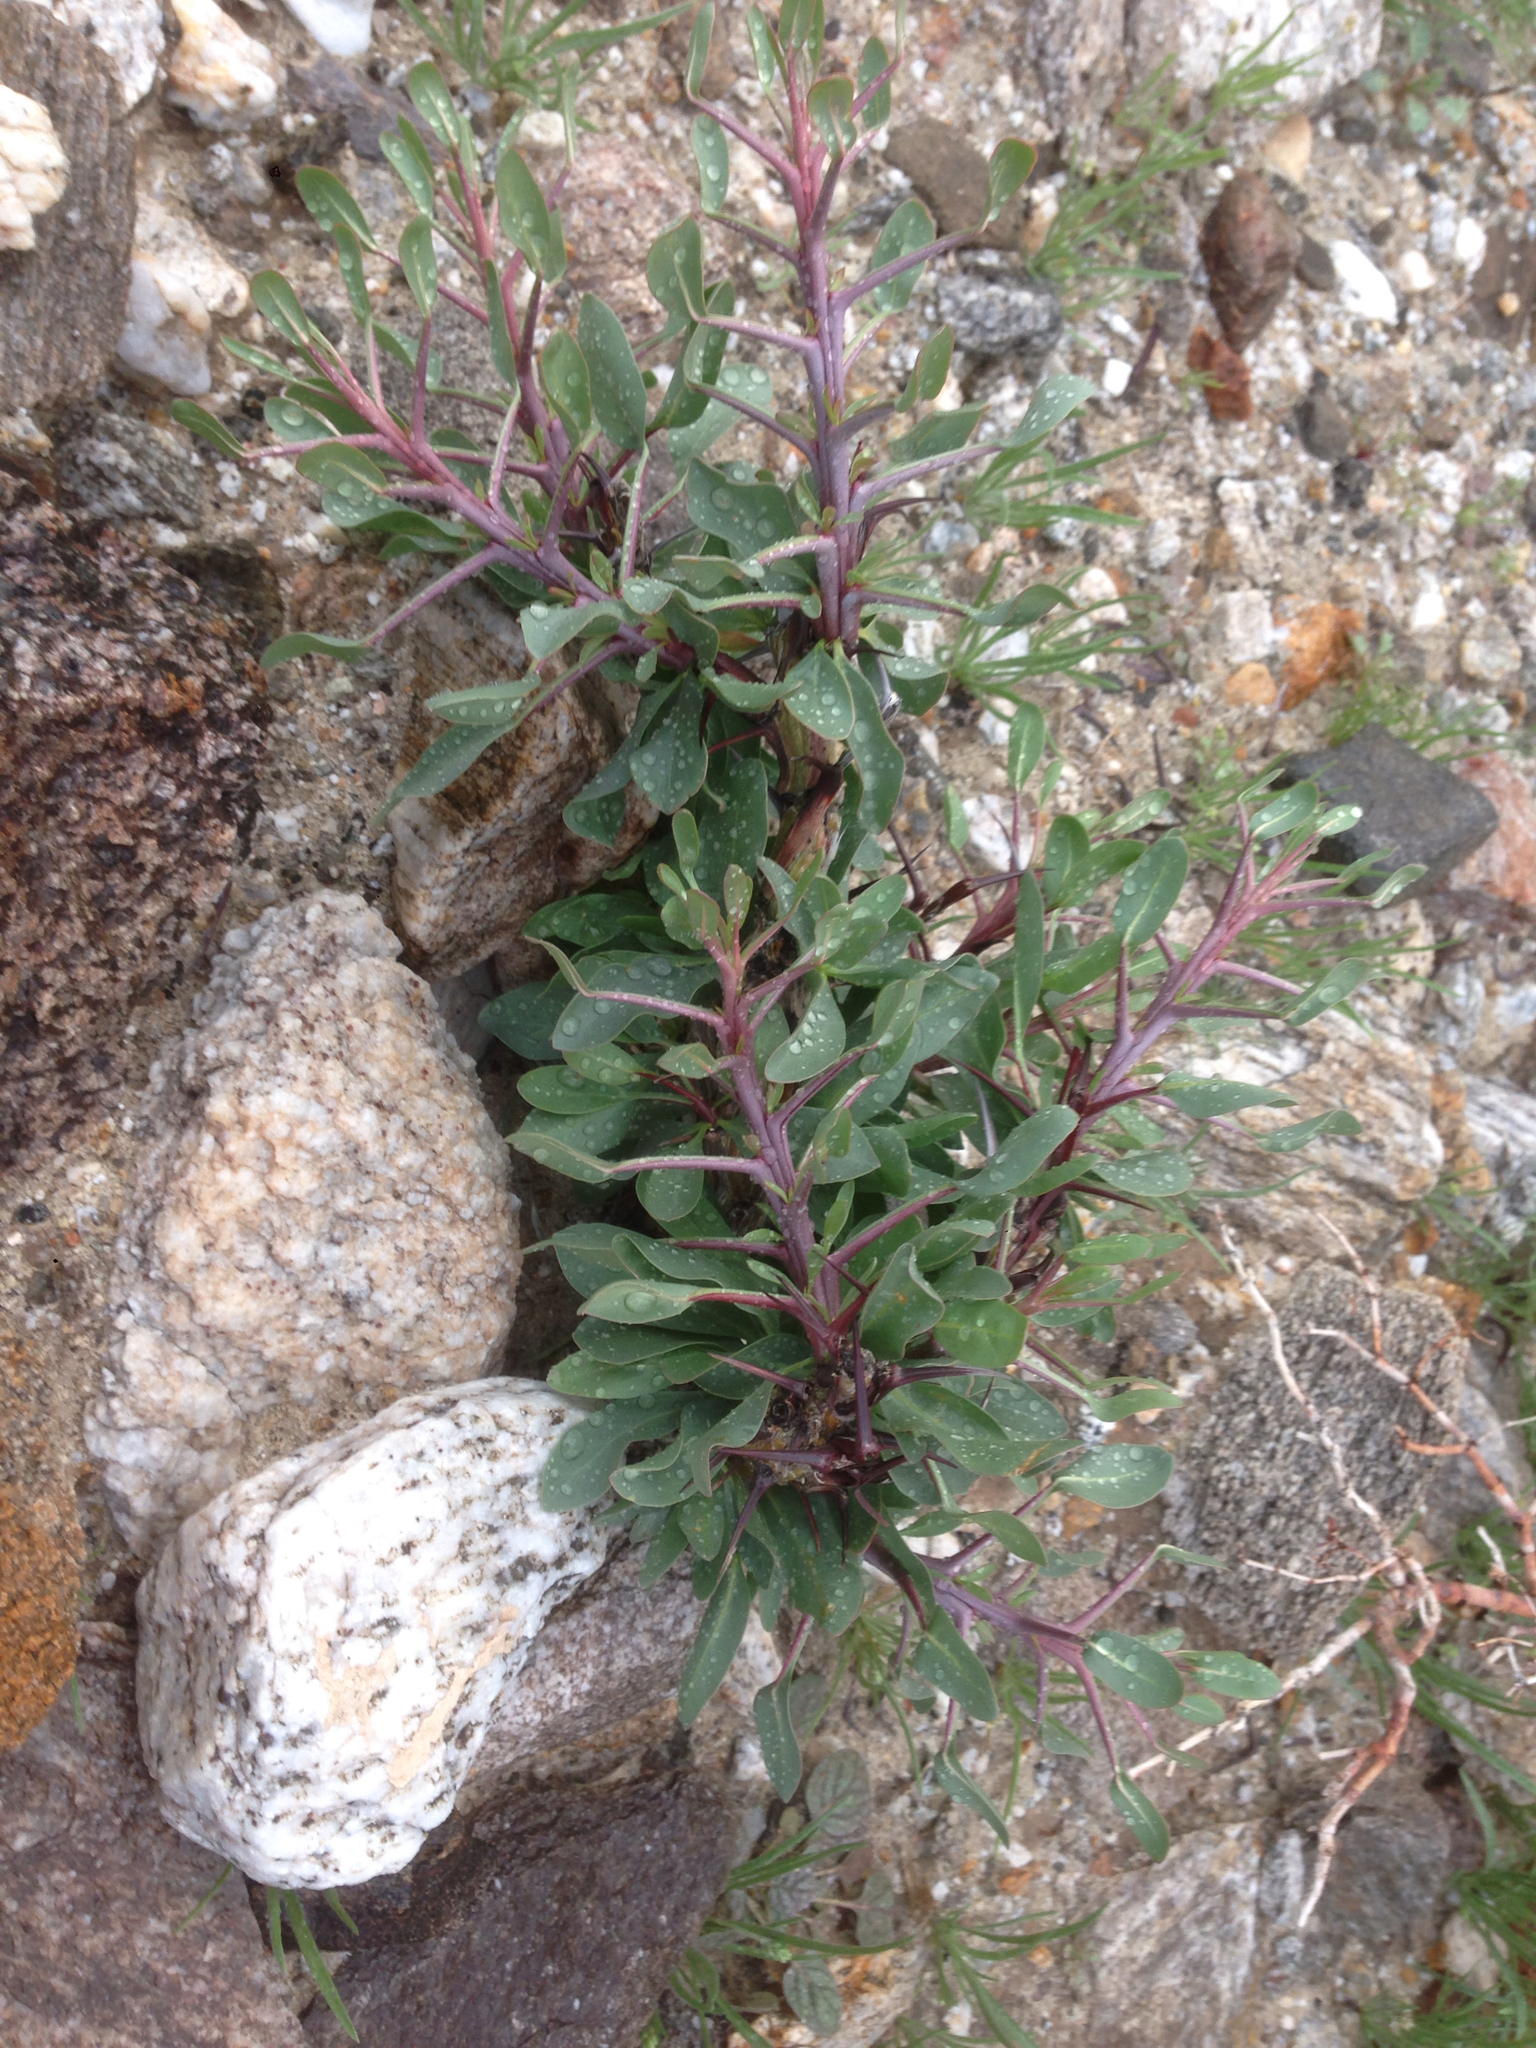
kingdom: Plantae
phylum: Tracheophyta
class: Magnoliopsida
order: Ericales
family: Fouquieriaceae
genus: Fouquieria
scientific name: Fouquieria splendens
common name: Vine-cactus
